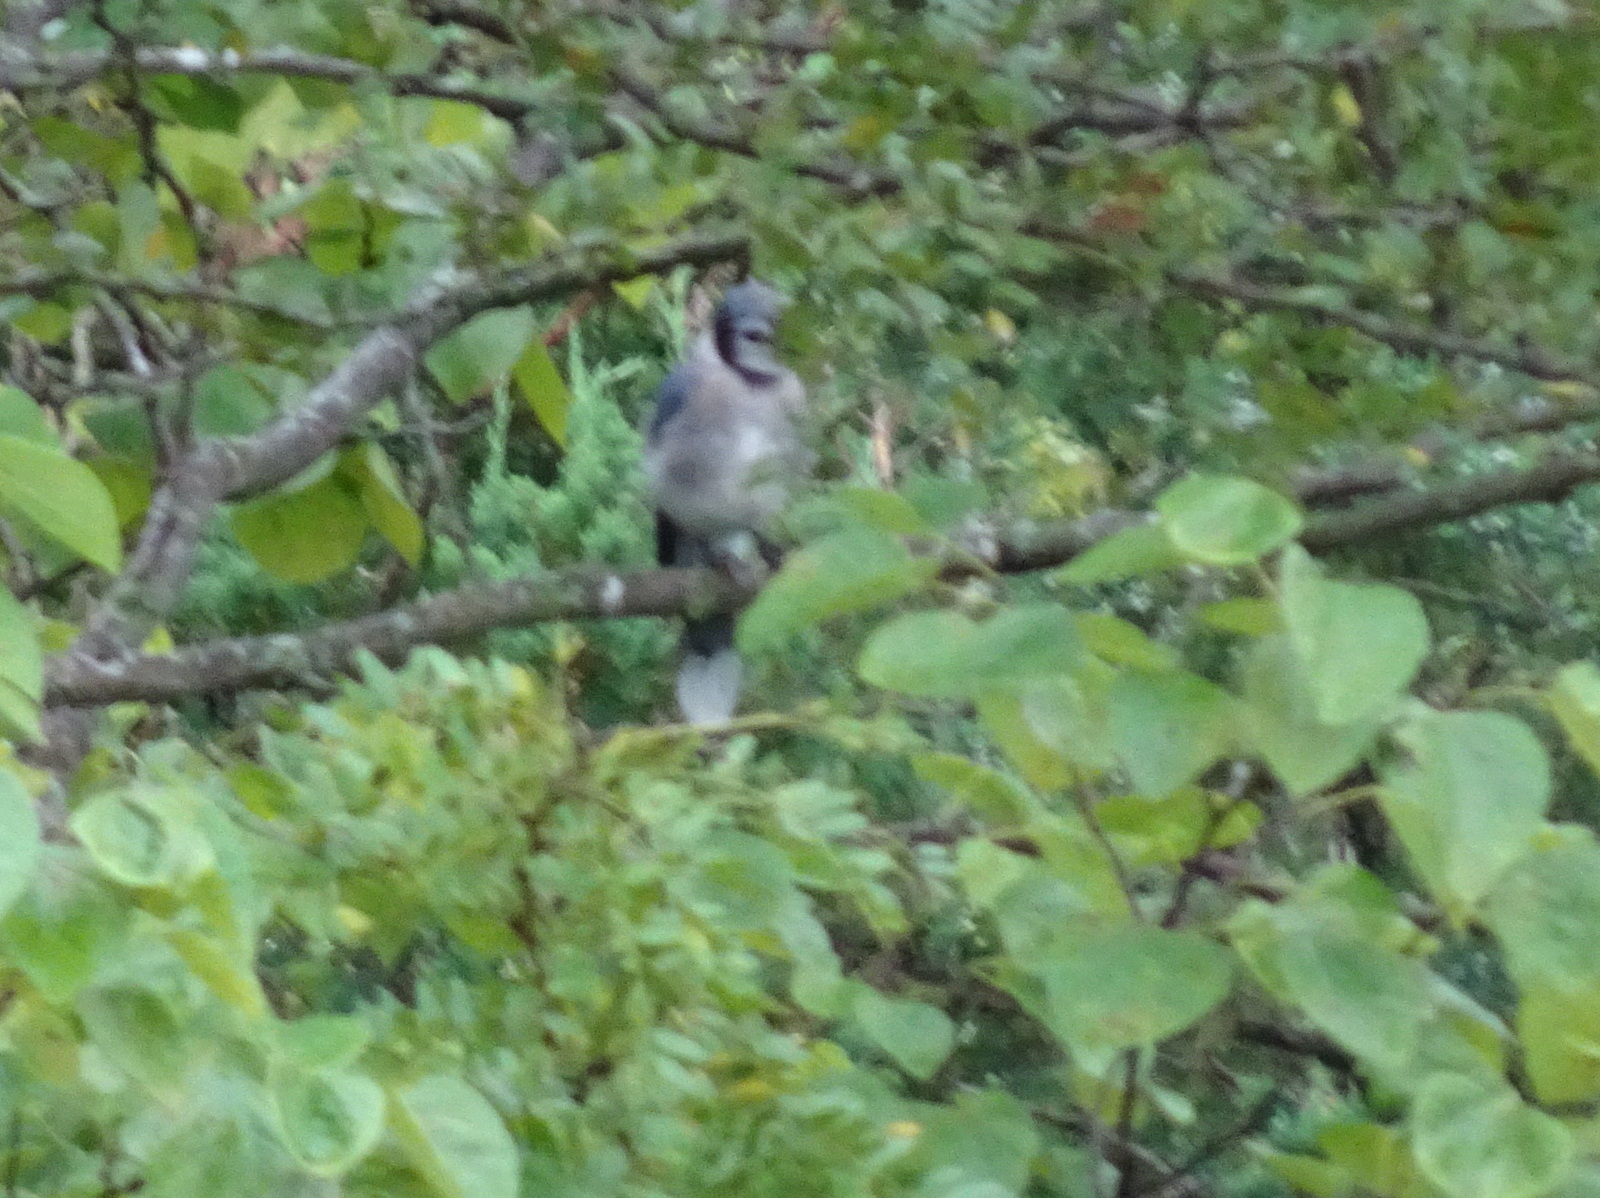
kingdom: Animalia
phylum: Chordata
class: Aves
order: Passeriformes
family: Corvidae
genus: Cyanocitta
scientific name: Cyanocitta cristata
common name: Blue jay
